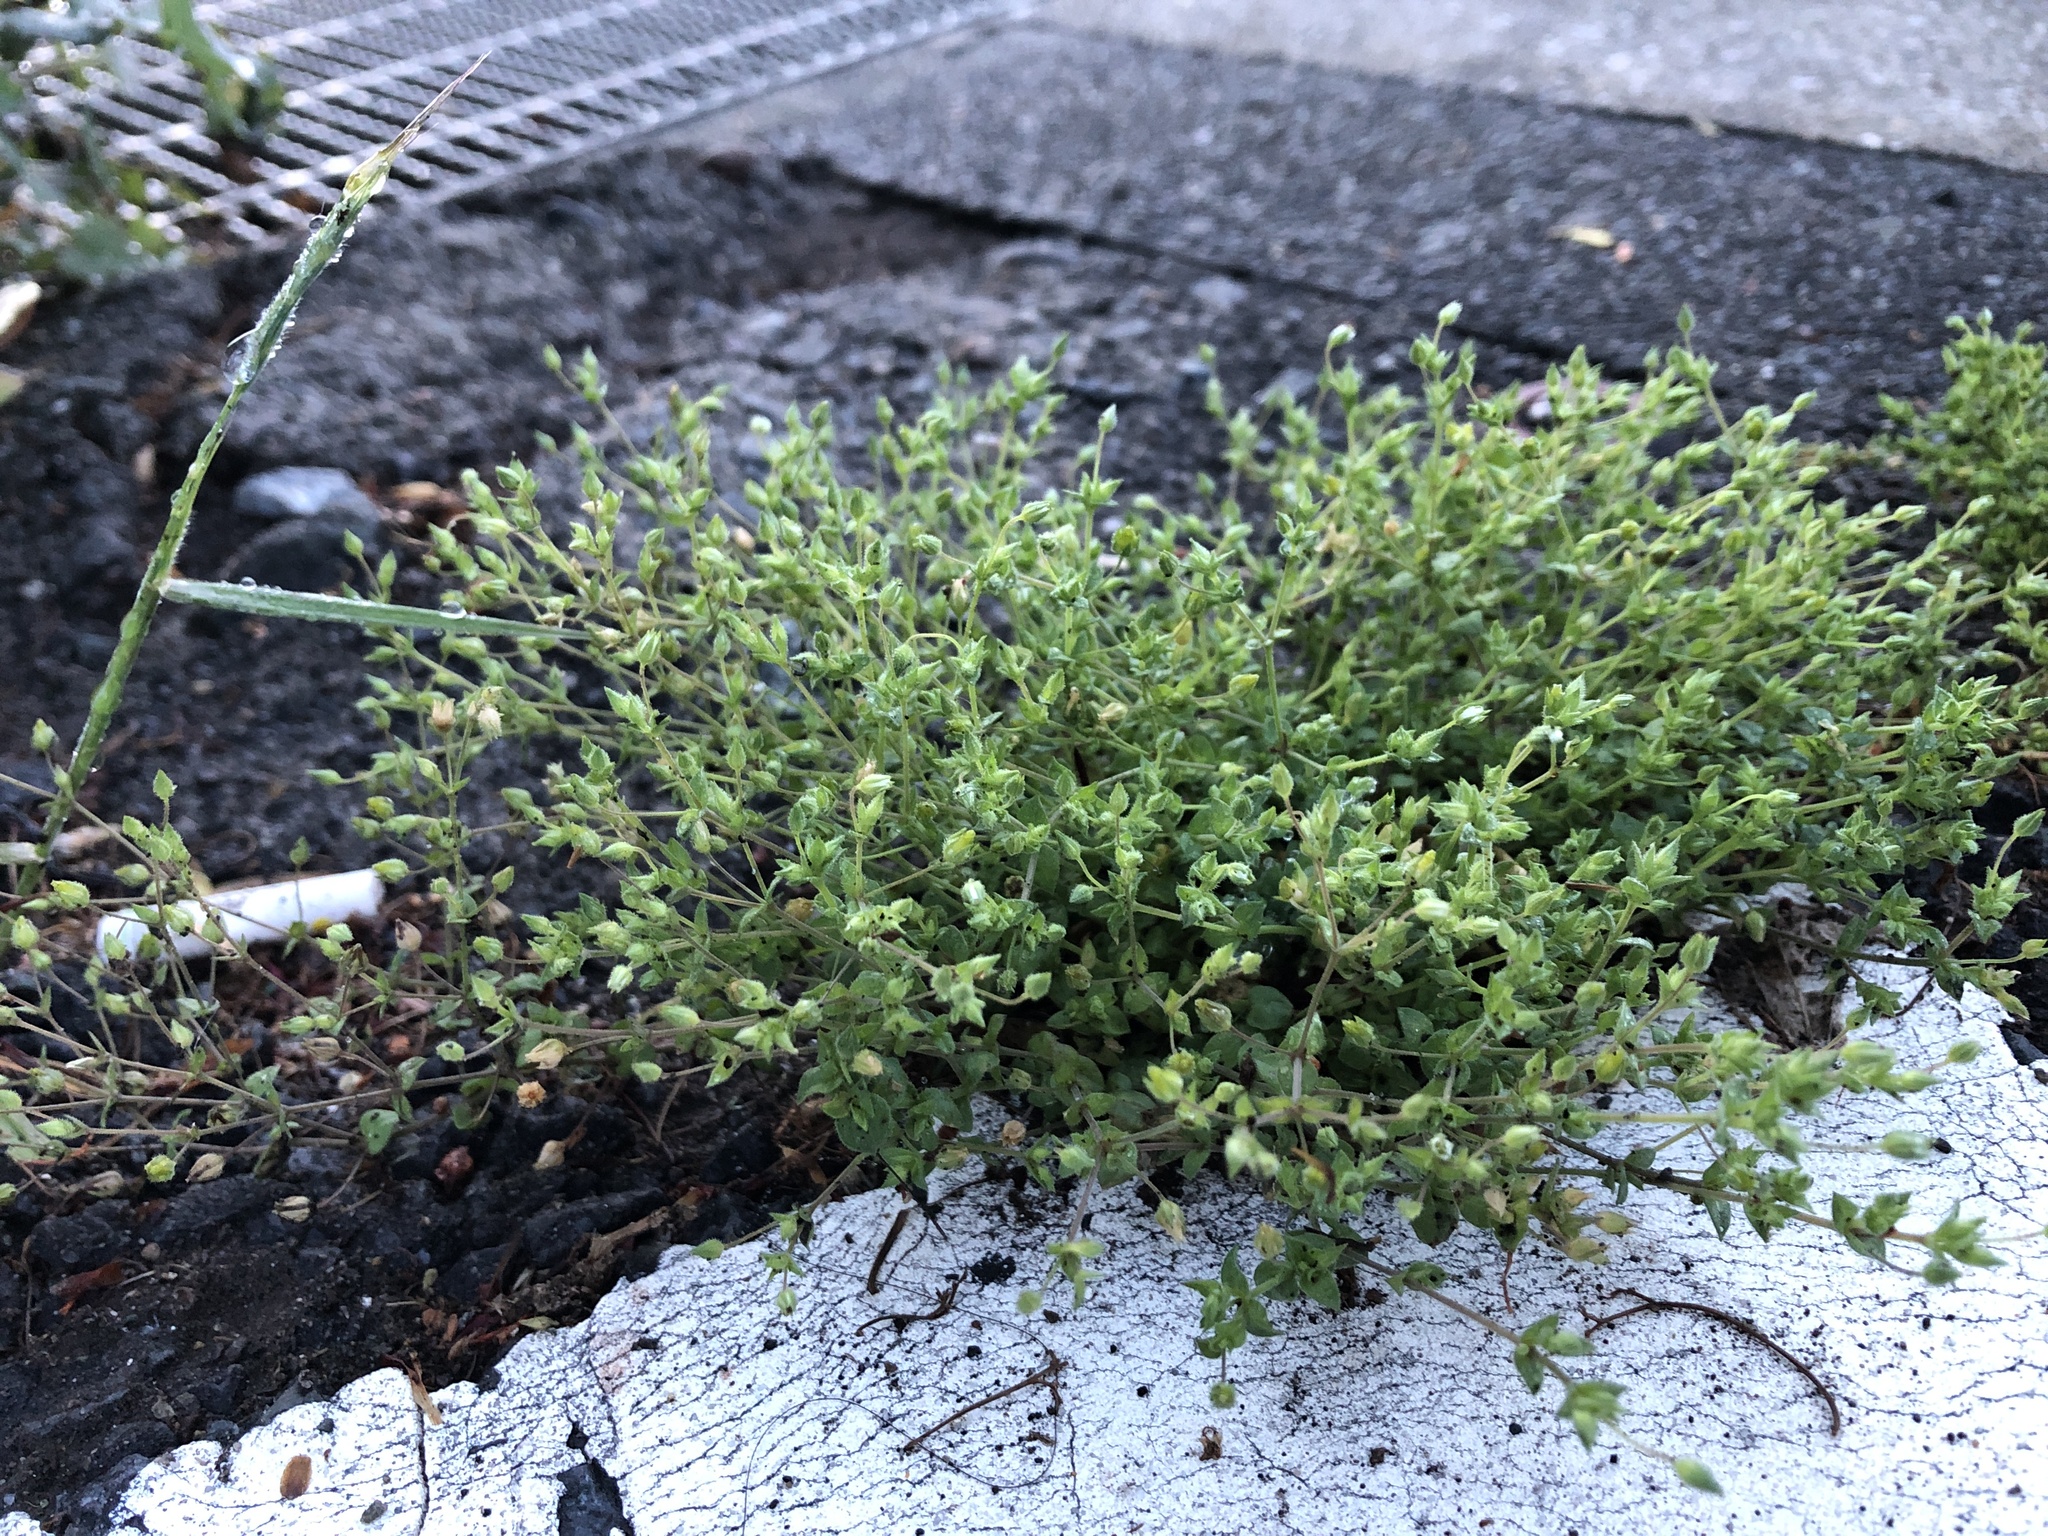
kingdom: Plantae
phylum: Tracheophyta
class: Magnoliopsida
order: Caryophyllales
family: Caryophyllaceae
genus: Arenaria
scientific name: Arenaria serpyllifolia
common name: Thyme-leaved sandwort
